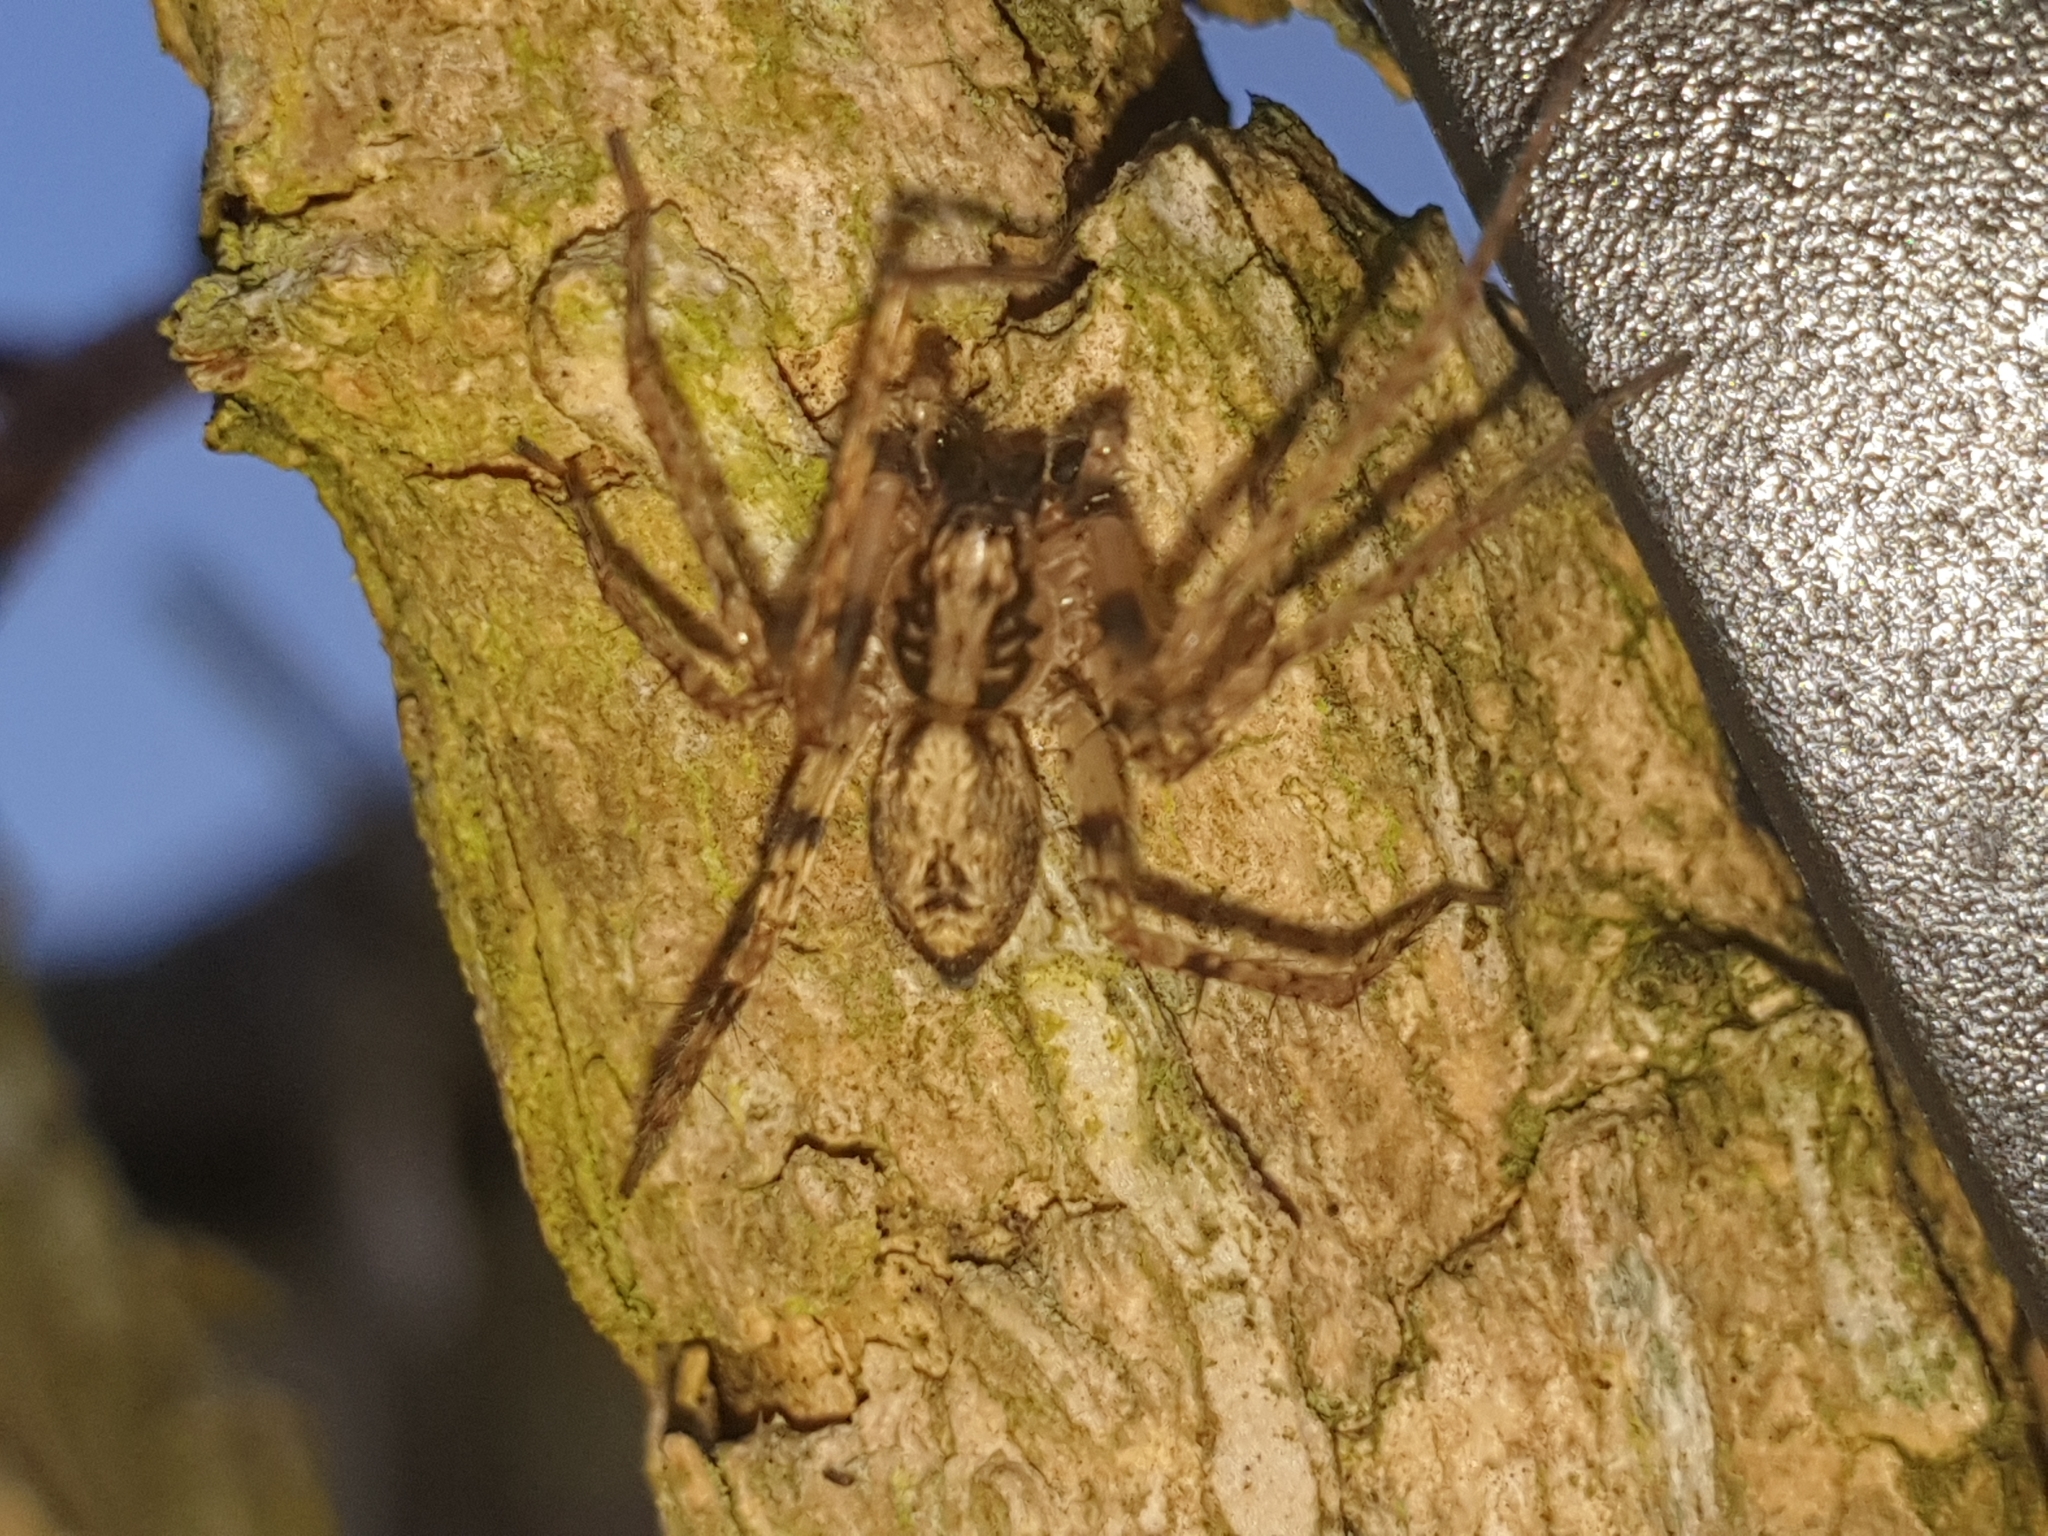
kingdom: Animalia
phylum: Arthropoda
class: Arachnida
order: Araneae
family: Anyphaenidae
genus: Anyphaena
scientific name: Anyphaena accentuata
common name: Buzzing spider
